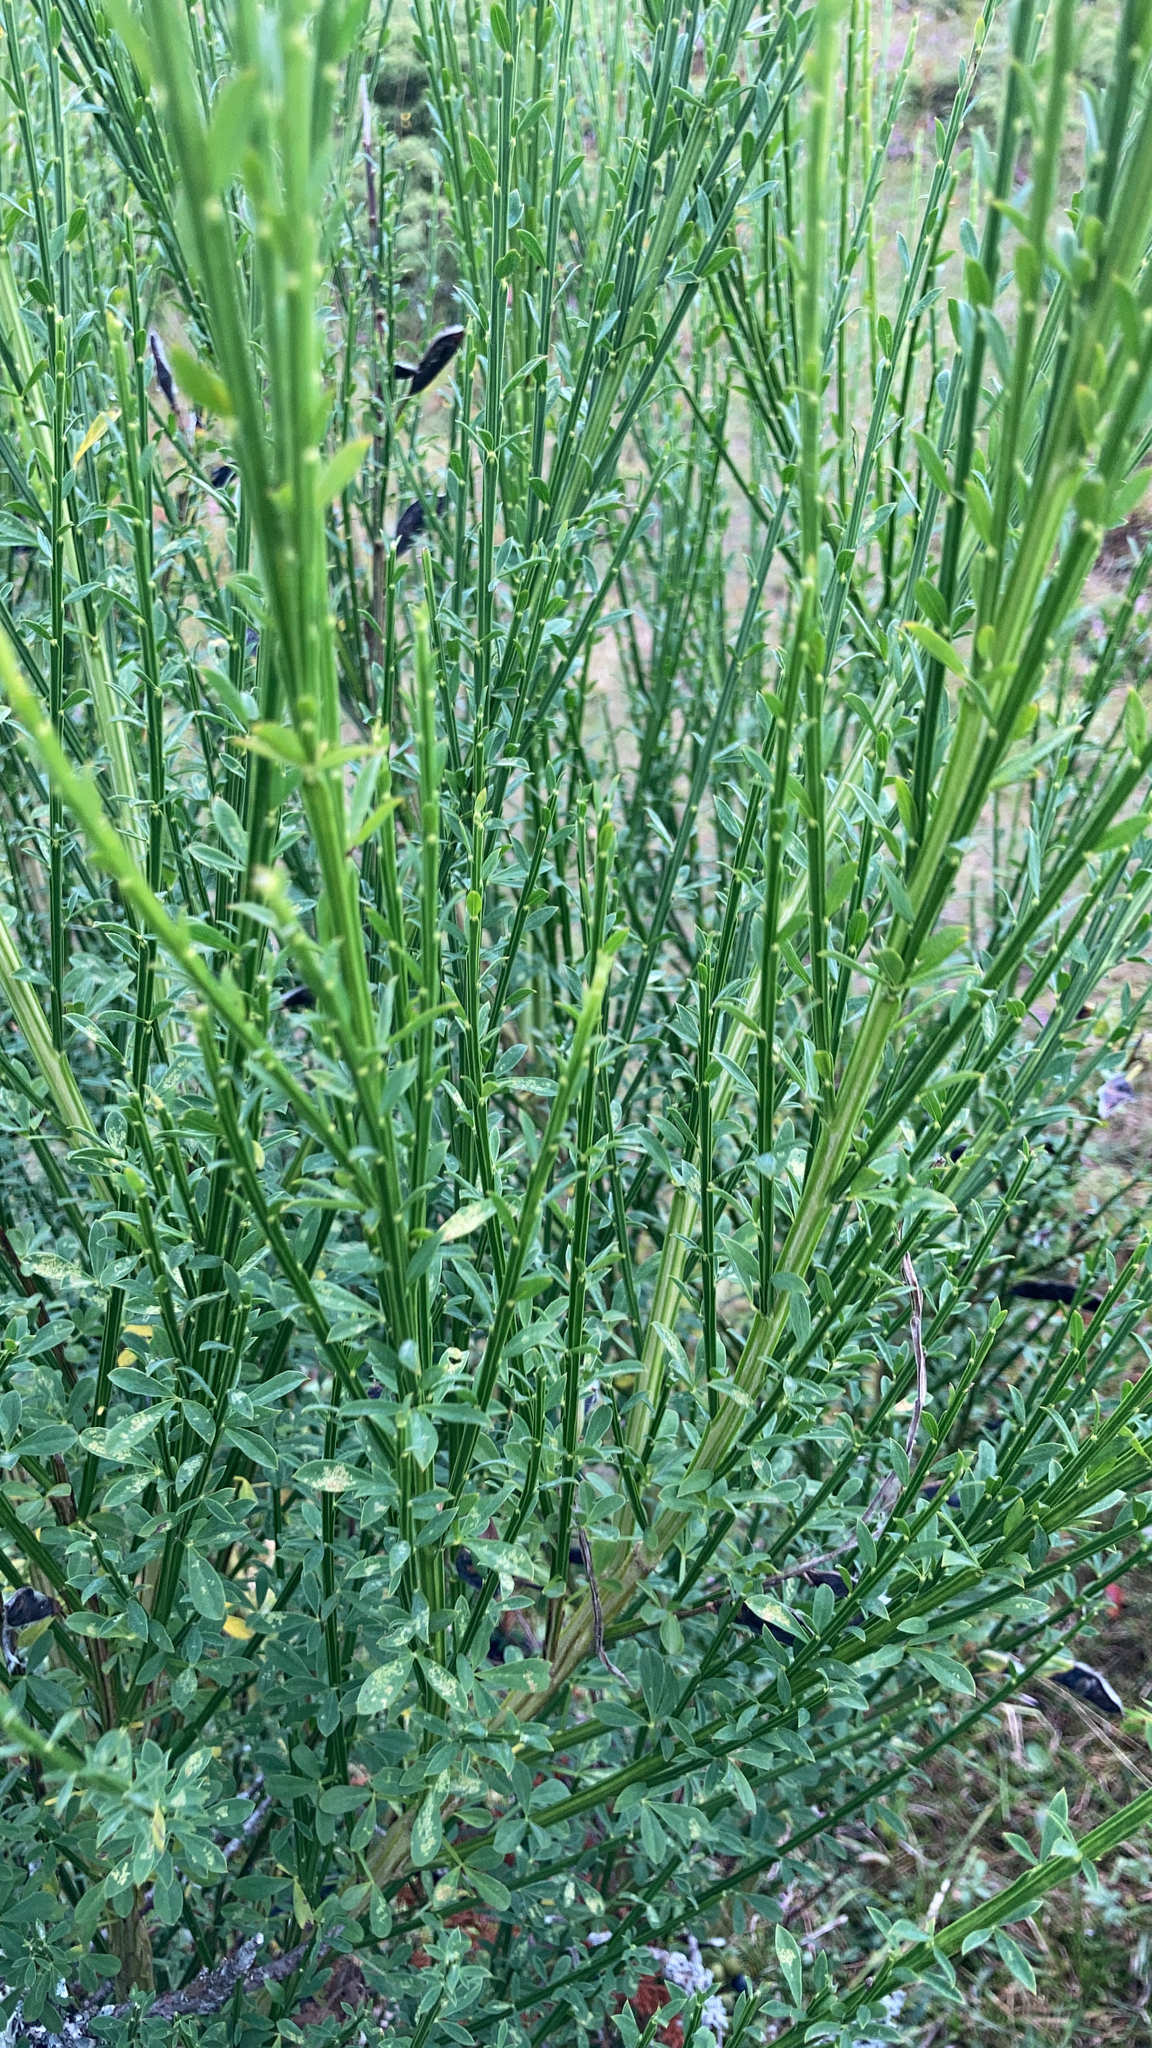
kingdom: Plantae
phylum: Tracheophyta
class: Magnoliopsida
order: Fabales
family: Fabaceae
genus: Cytisus
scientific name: Cytisus scoparius
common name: Scotch broom
